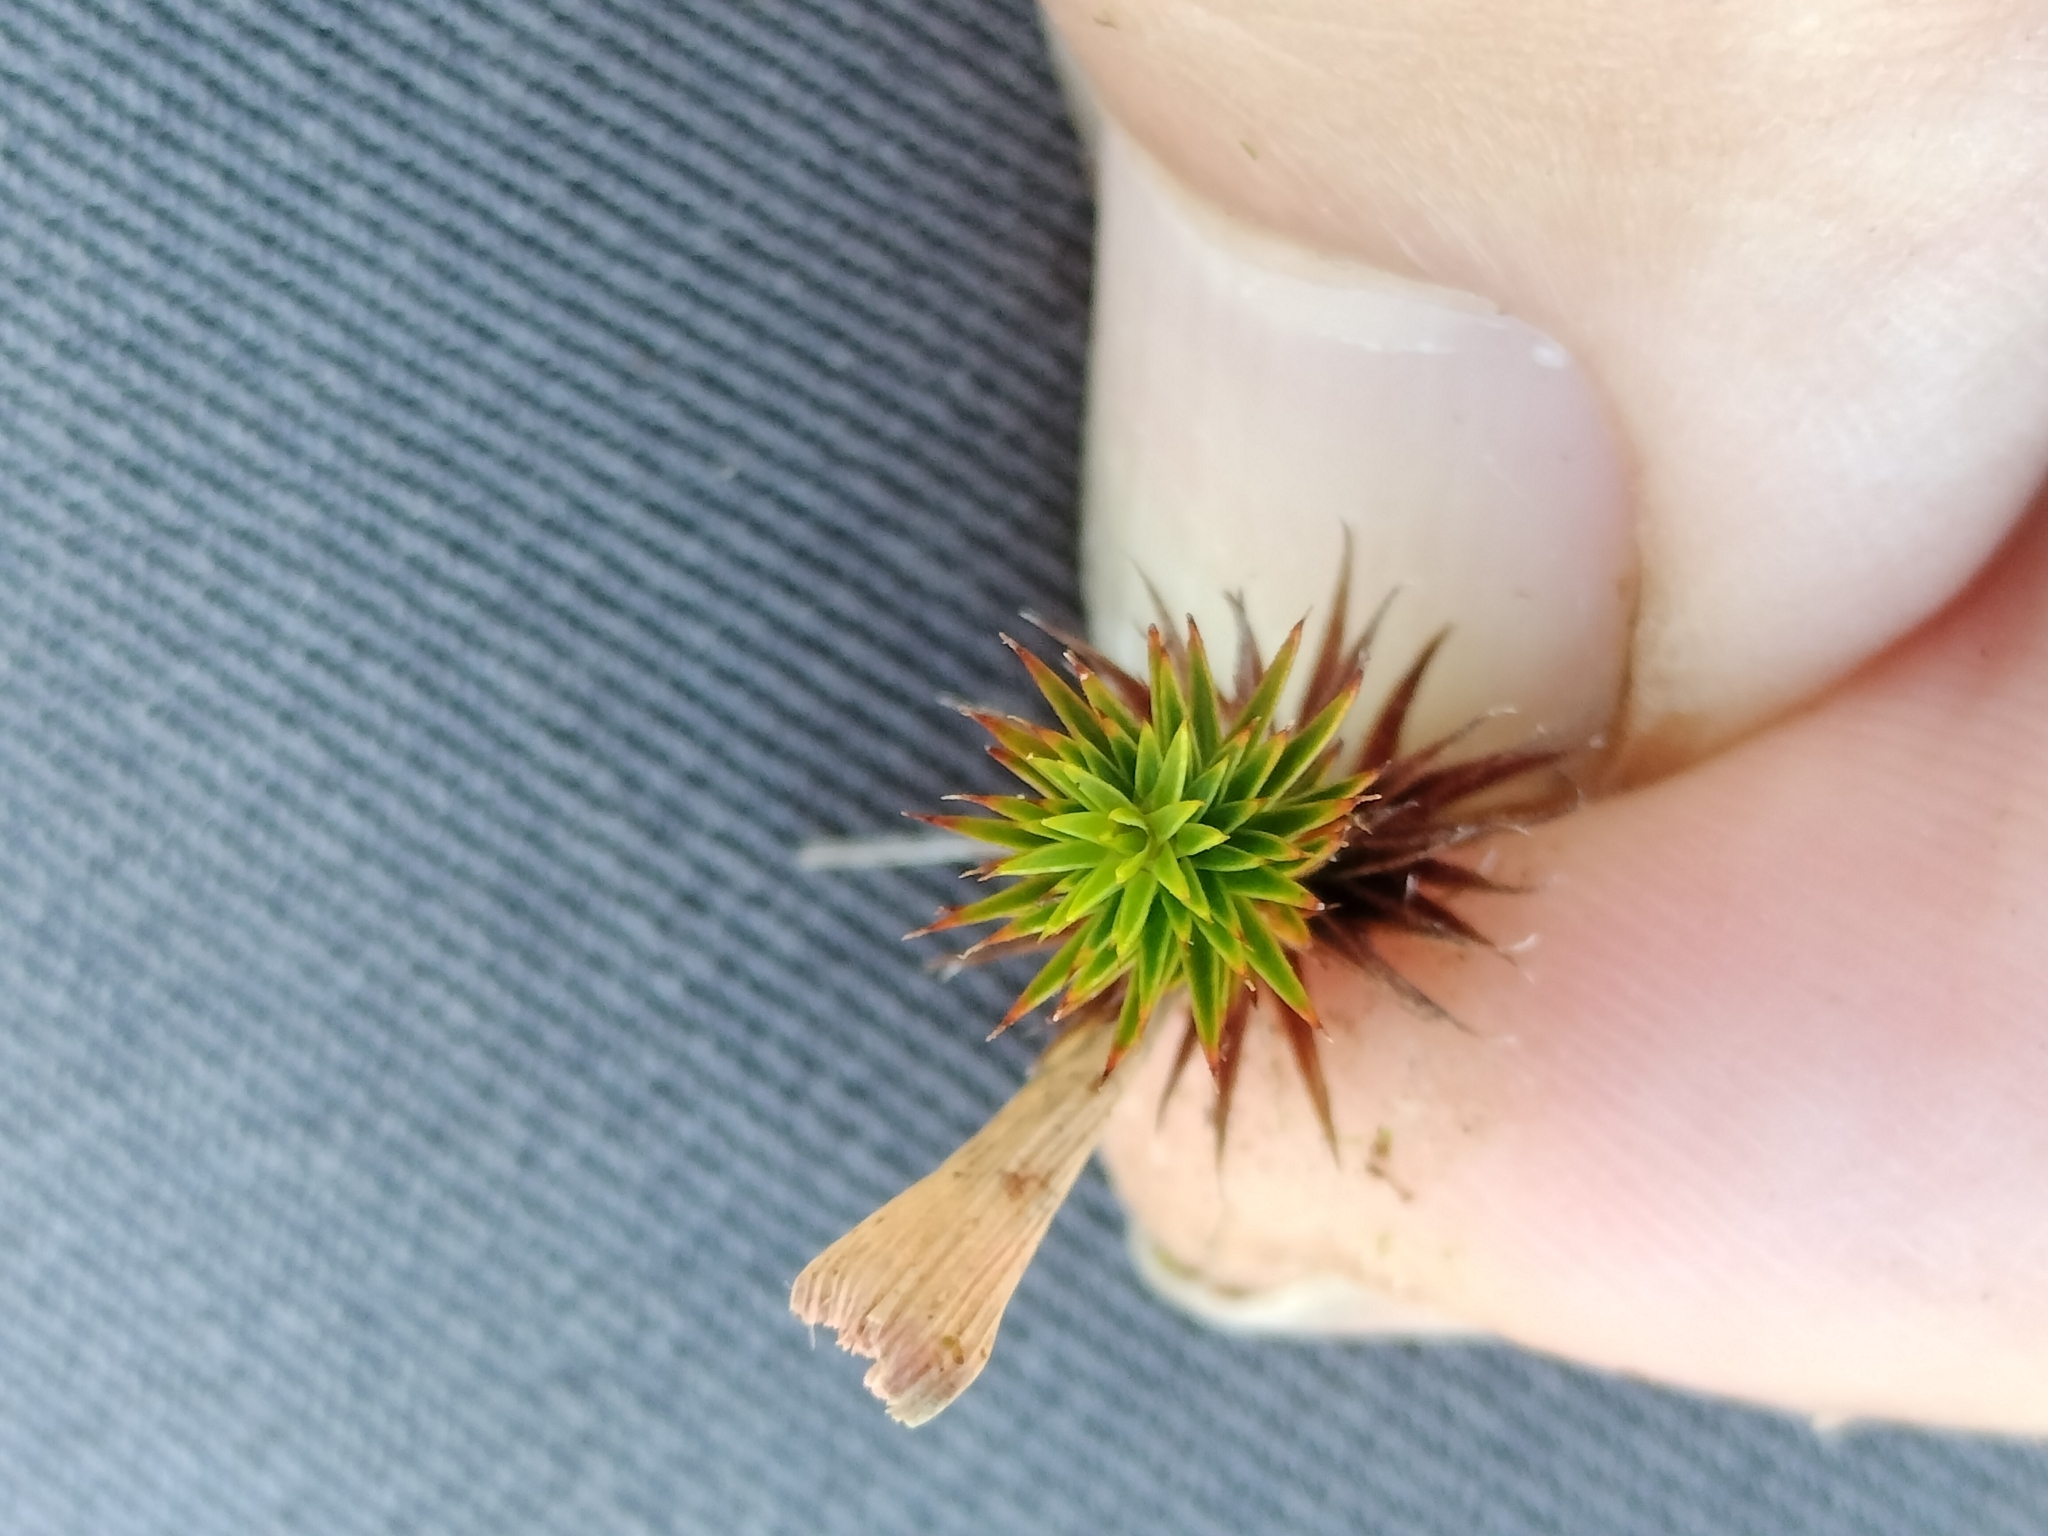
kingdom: Plantae
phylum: Bryophyta
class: Polytrichopsida
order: Polytrichales
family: Polytrichaceae
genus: Polytrichum
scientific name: Polytrichum strictum
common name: Bog haircap moss
